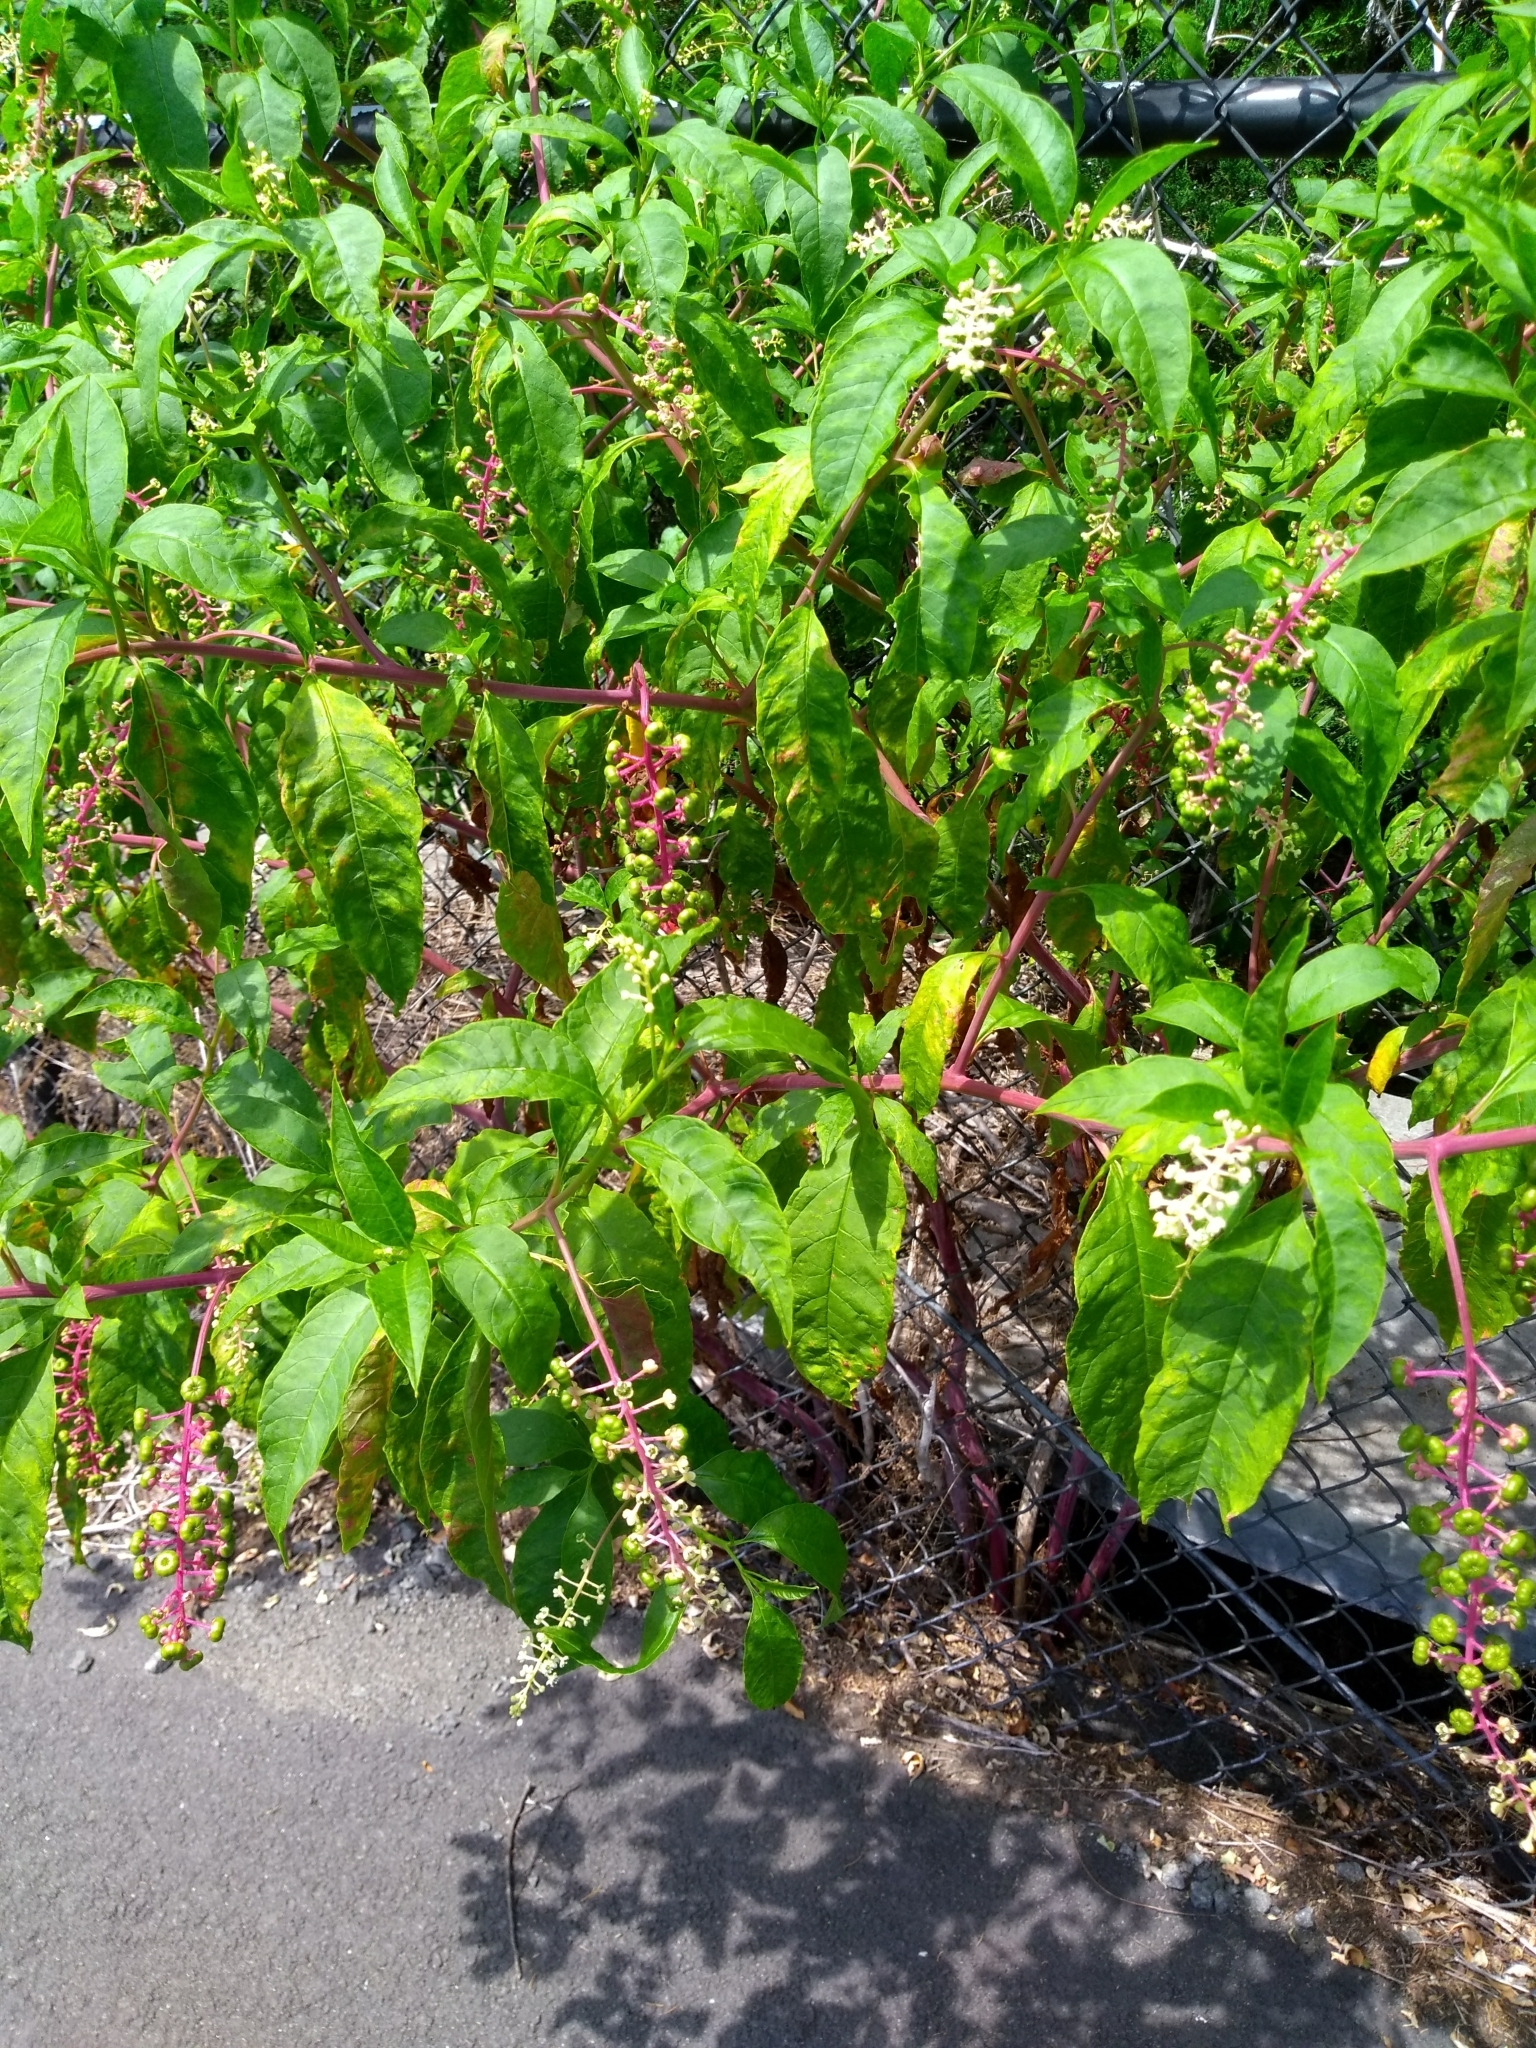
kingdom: Plantae
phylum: Tracheophyta
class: Magnoliopsida
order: Caryophyllales
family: Phytolaccaceae
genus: Phytolacca
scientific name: Phytolacca americana
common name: American pokeweed
